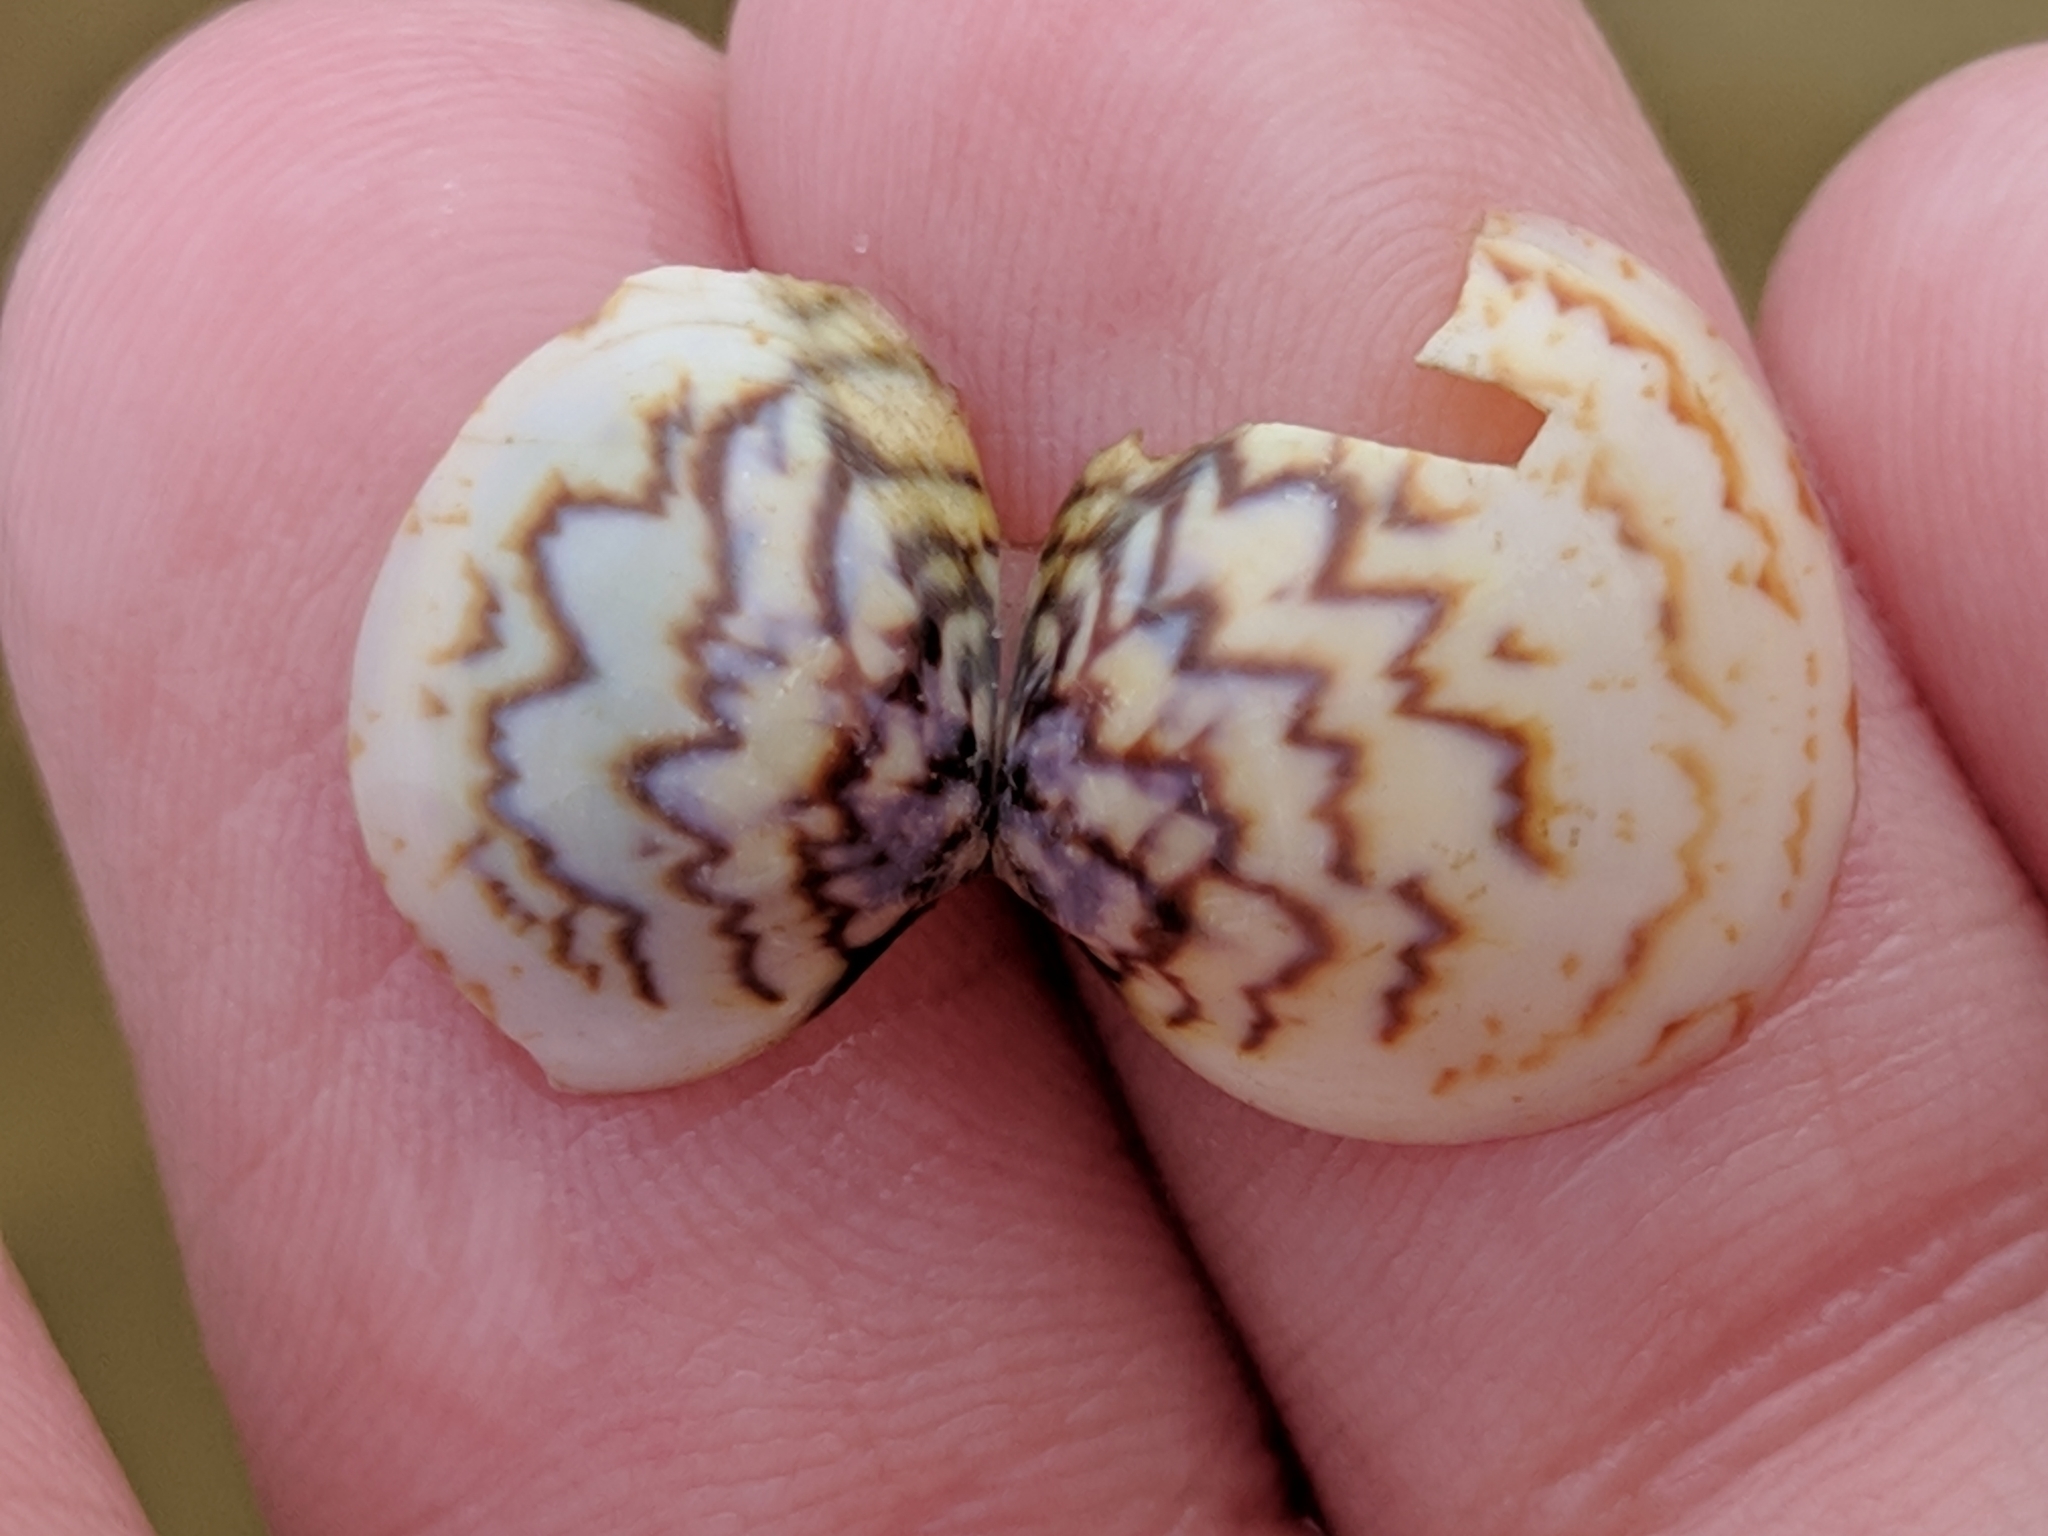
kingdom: Animalia
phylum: Mollusca
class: Bivalvia
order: Cardiida
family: Cardiidae
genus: Laevicardium
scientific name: Laevicardium mortoni
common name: Morton eggcockle
